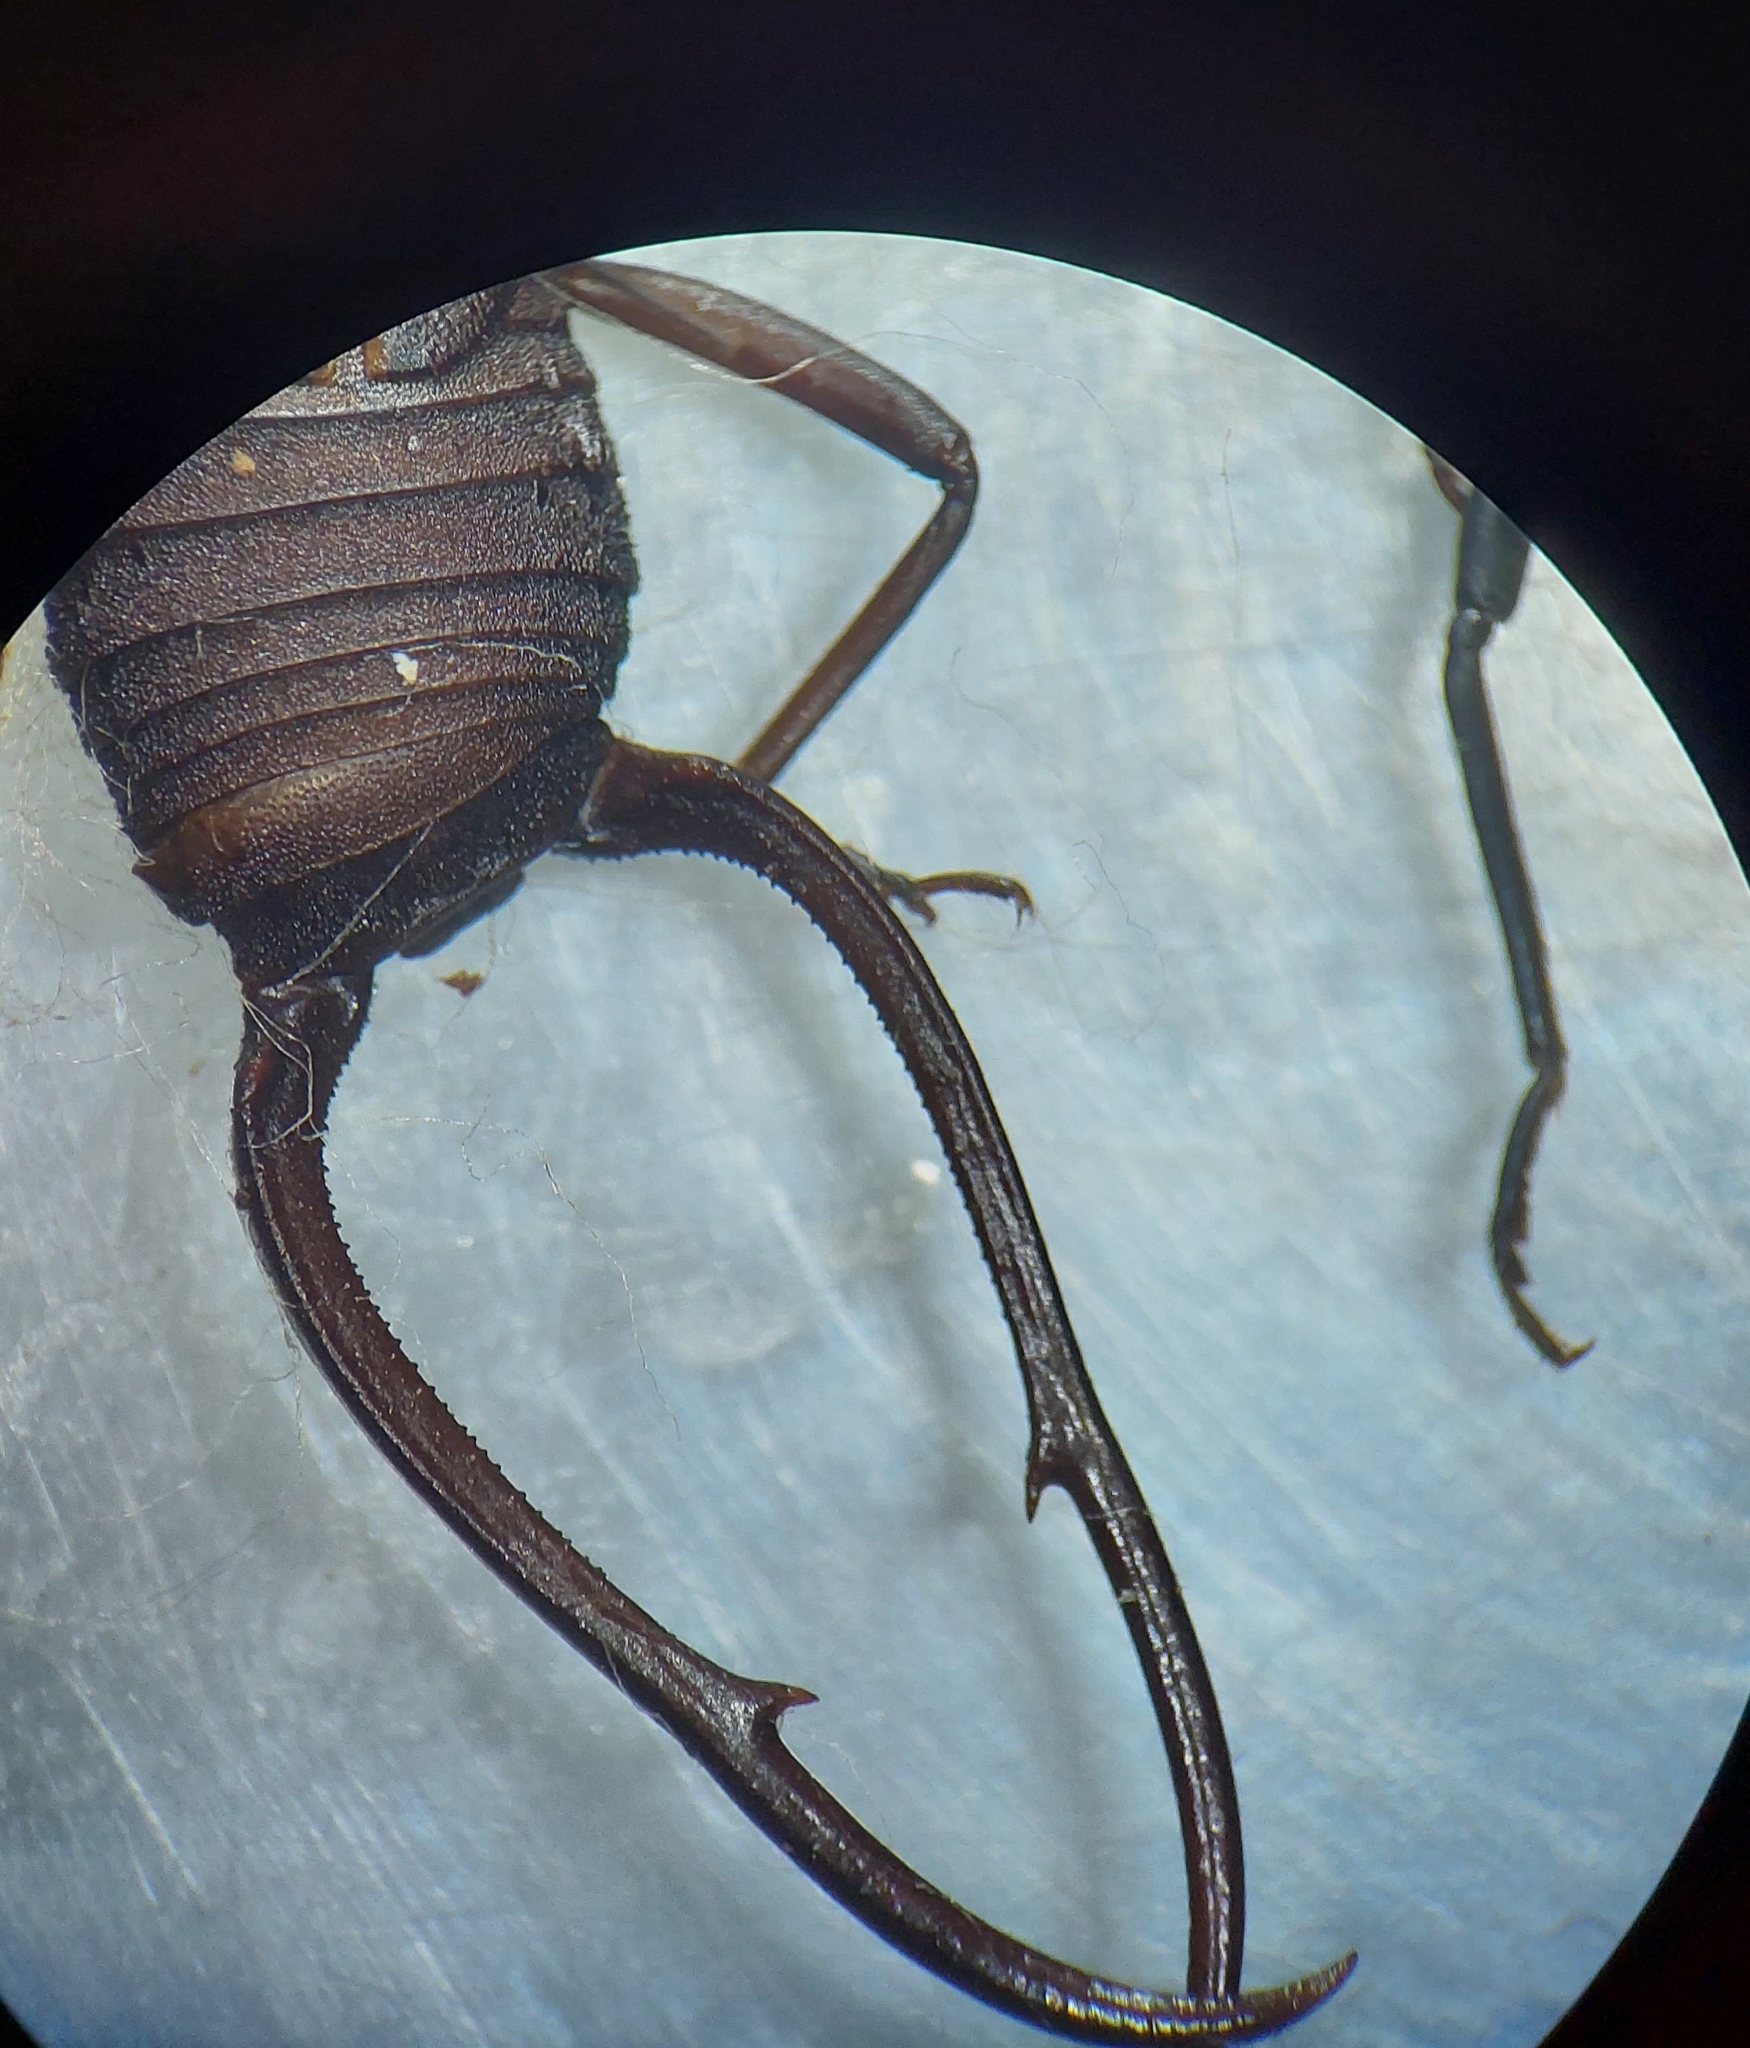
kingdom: Animalia
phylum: Arthropoda
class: Insecta
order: Dermaptera
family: Forficulidae
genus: Allodahlia
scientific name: Allodahlia scabriuscula
